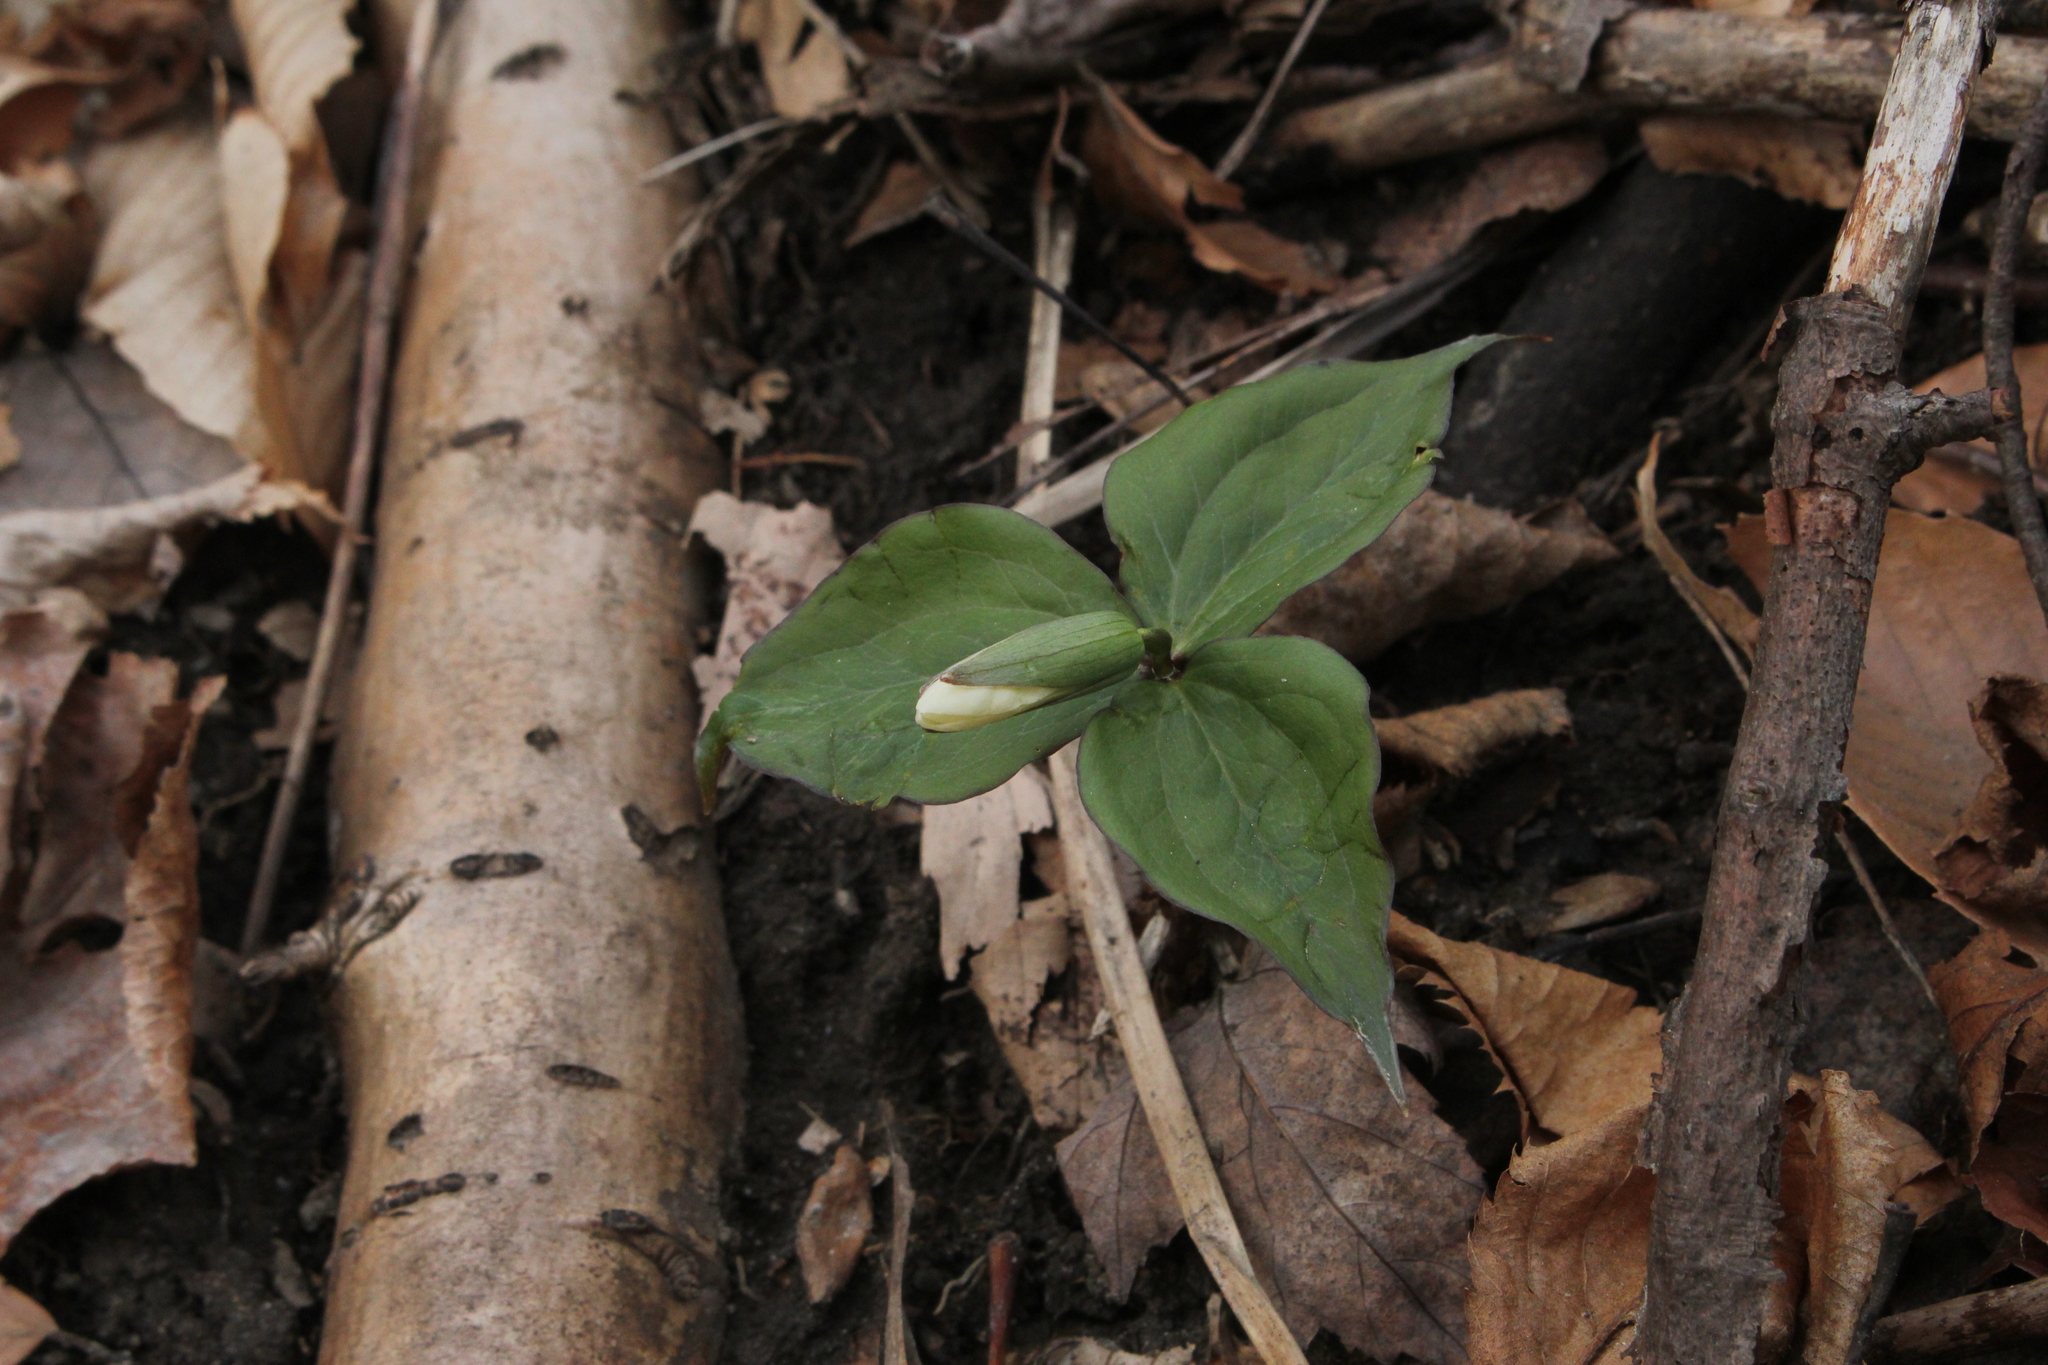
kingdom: Plantae
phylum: Tracheophyta
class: Liliopsida
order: Liliales
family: Melanthiaceae
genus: Trillium
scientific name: Trillium grandiflorum
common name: Great white trillium
